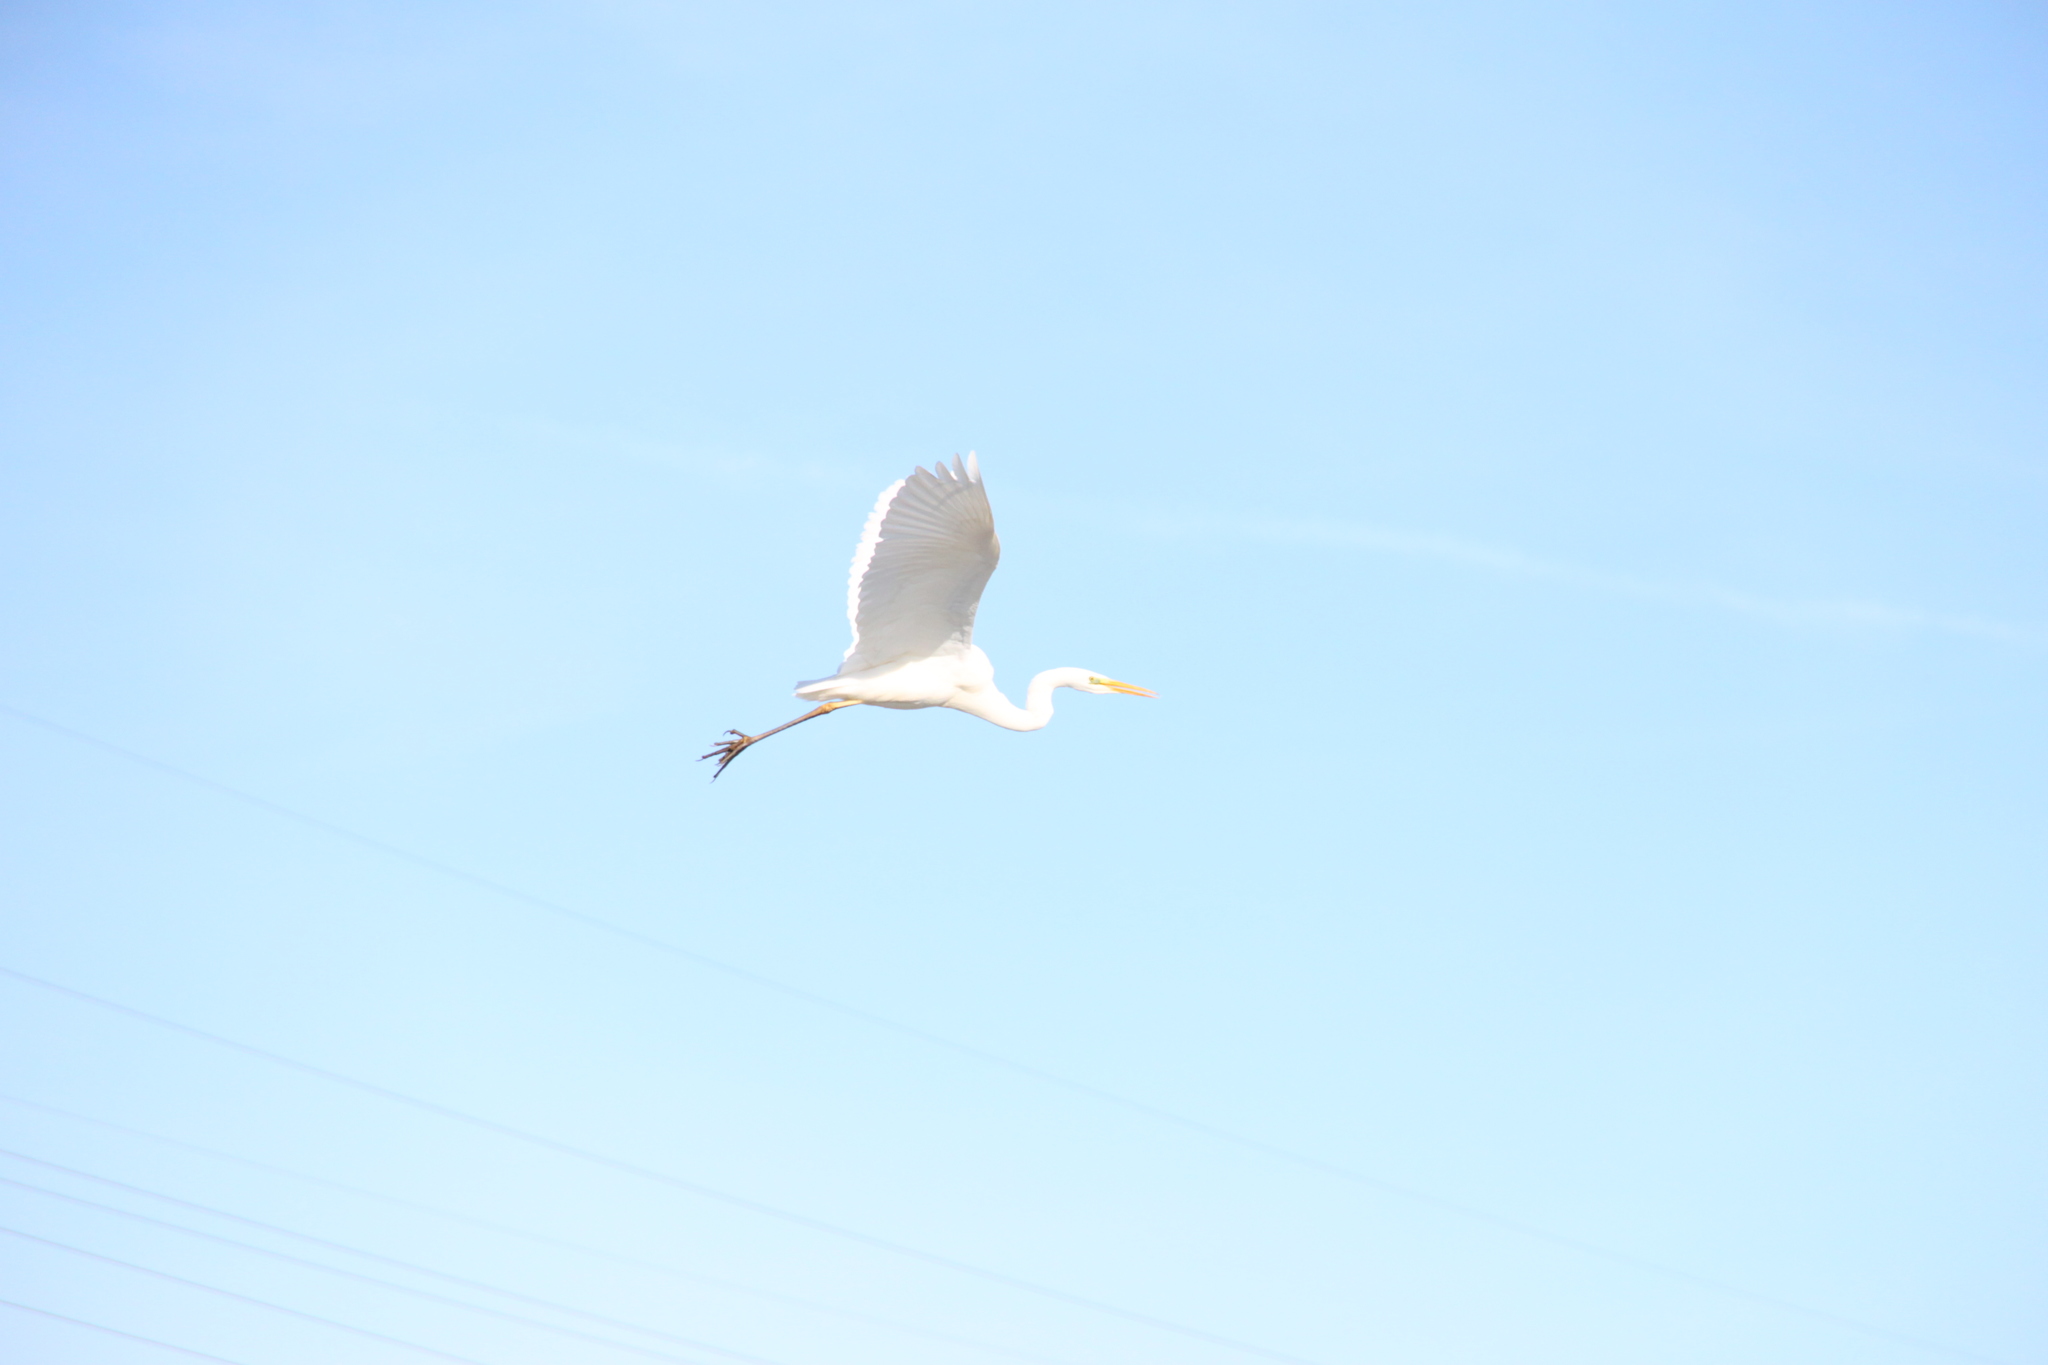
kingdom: Animalia
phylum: Chordata
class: Aves
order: Pelecaniformes
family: Ardeidae
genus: Ardea
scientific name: Ardea alba
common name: Great egret
